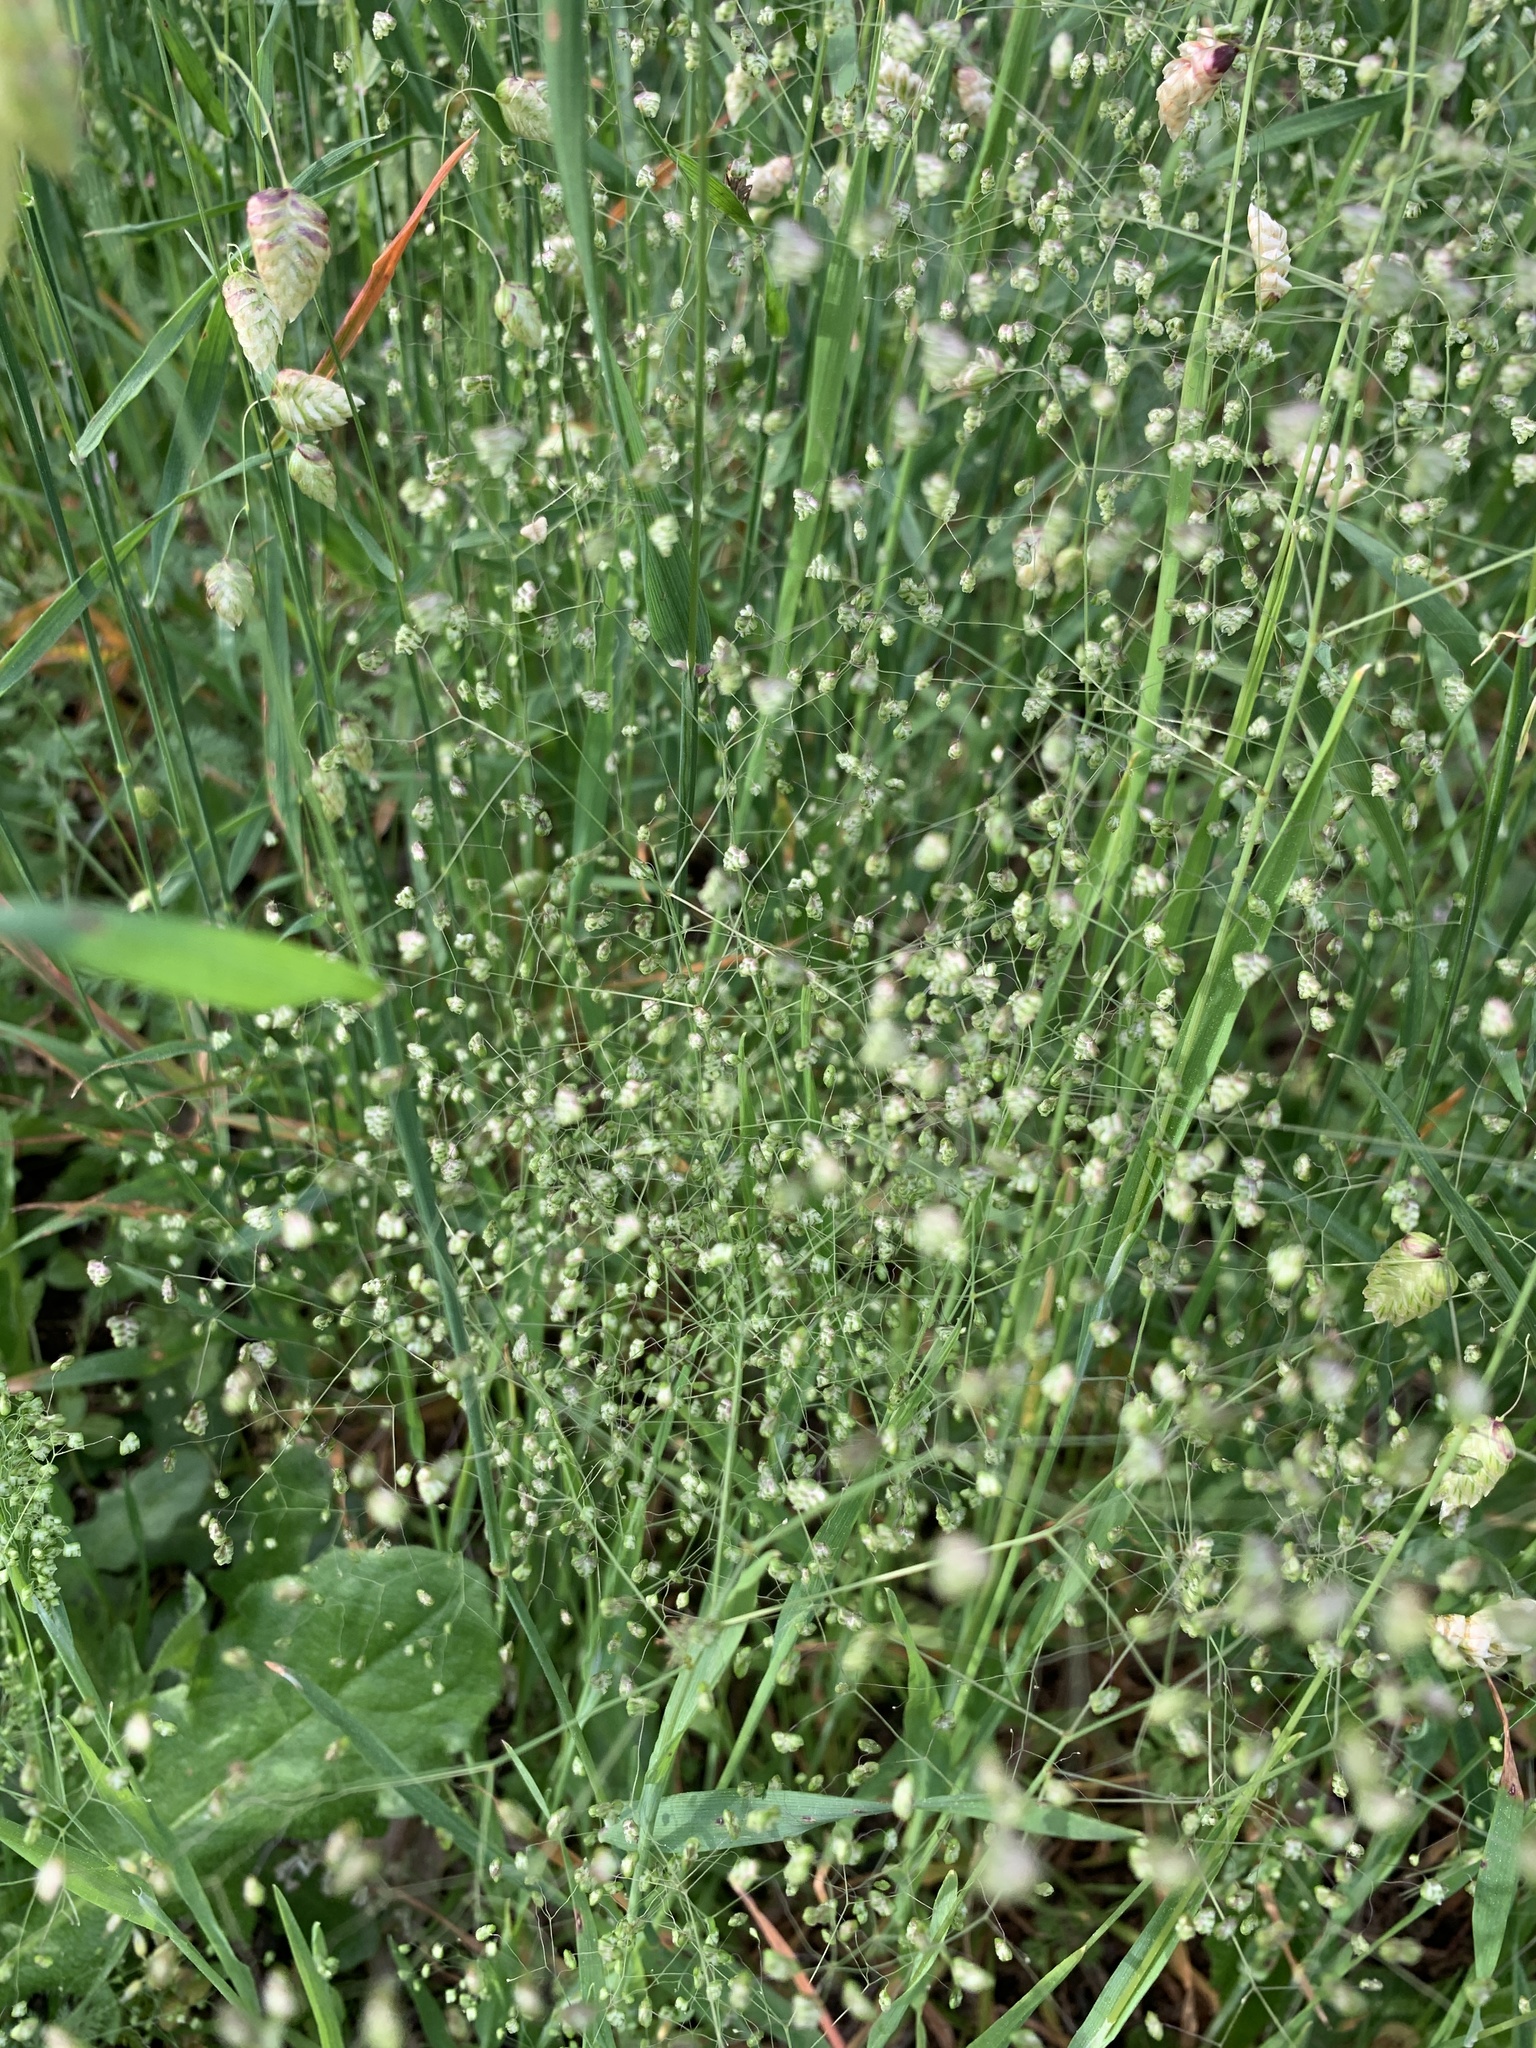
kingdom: Plantae
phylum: Tracheophyta
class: Liliopsida
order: Poales
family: Poaceae
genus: Briza
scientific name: Briza minor
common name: Lesser quaking-grass
